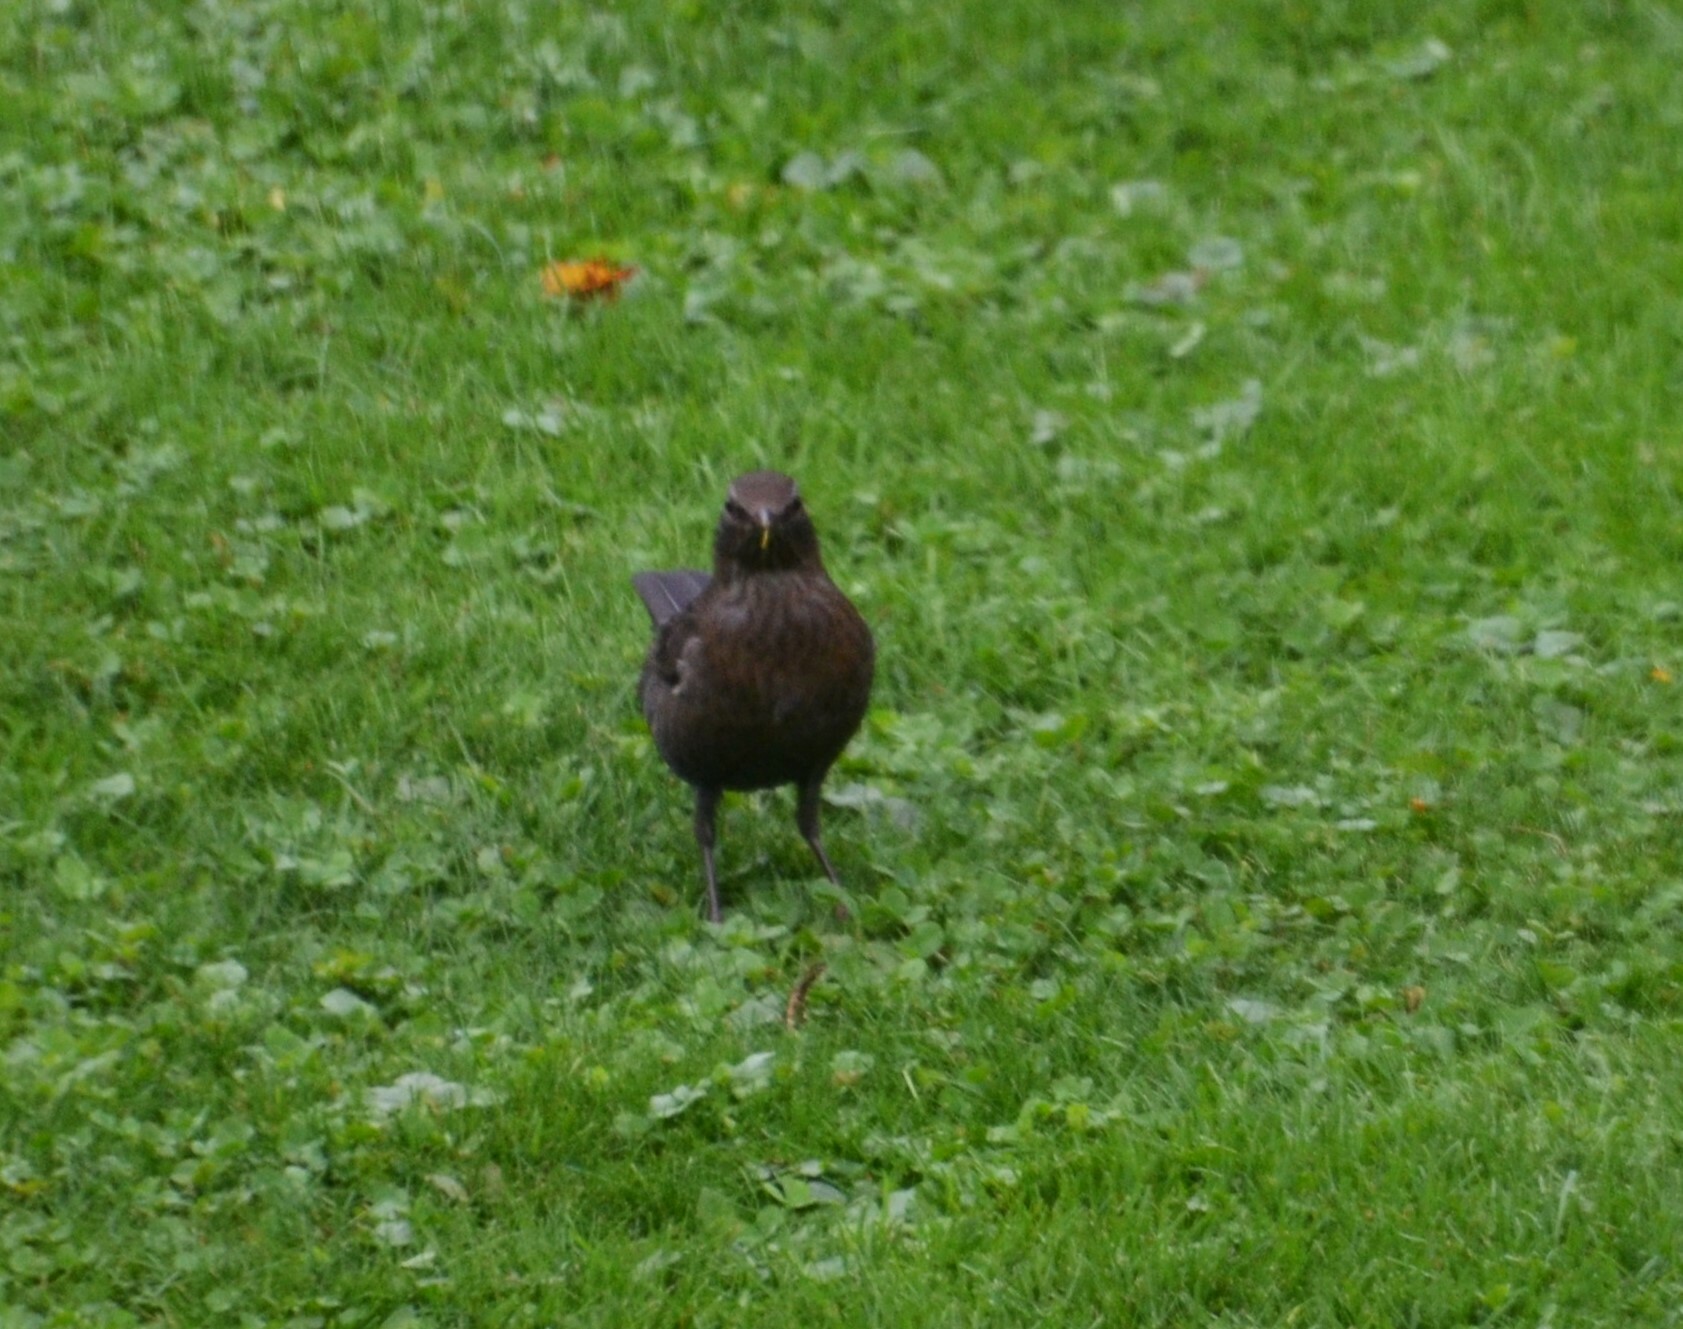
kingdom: Animalia
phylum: Chordata
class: Aves
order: Passeriformes
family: Turdidae
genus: Turdus
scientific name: Turdus merula
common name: Common blackbird
